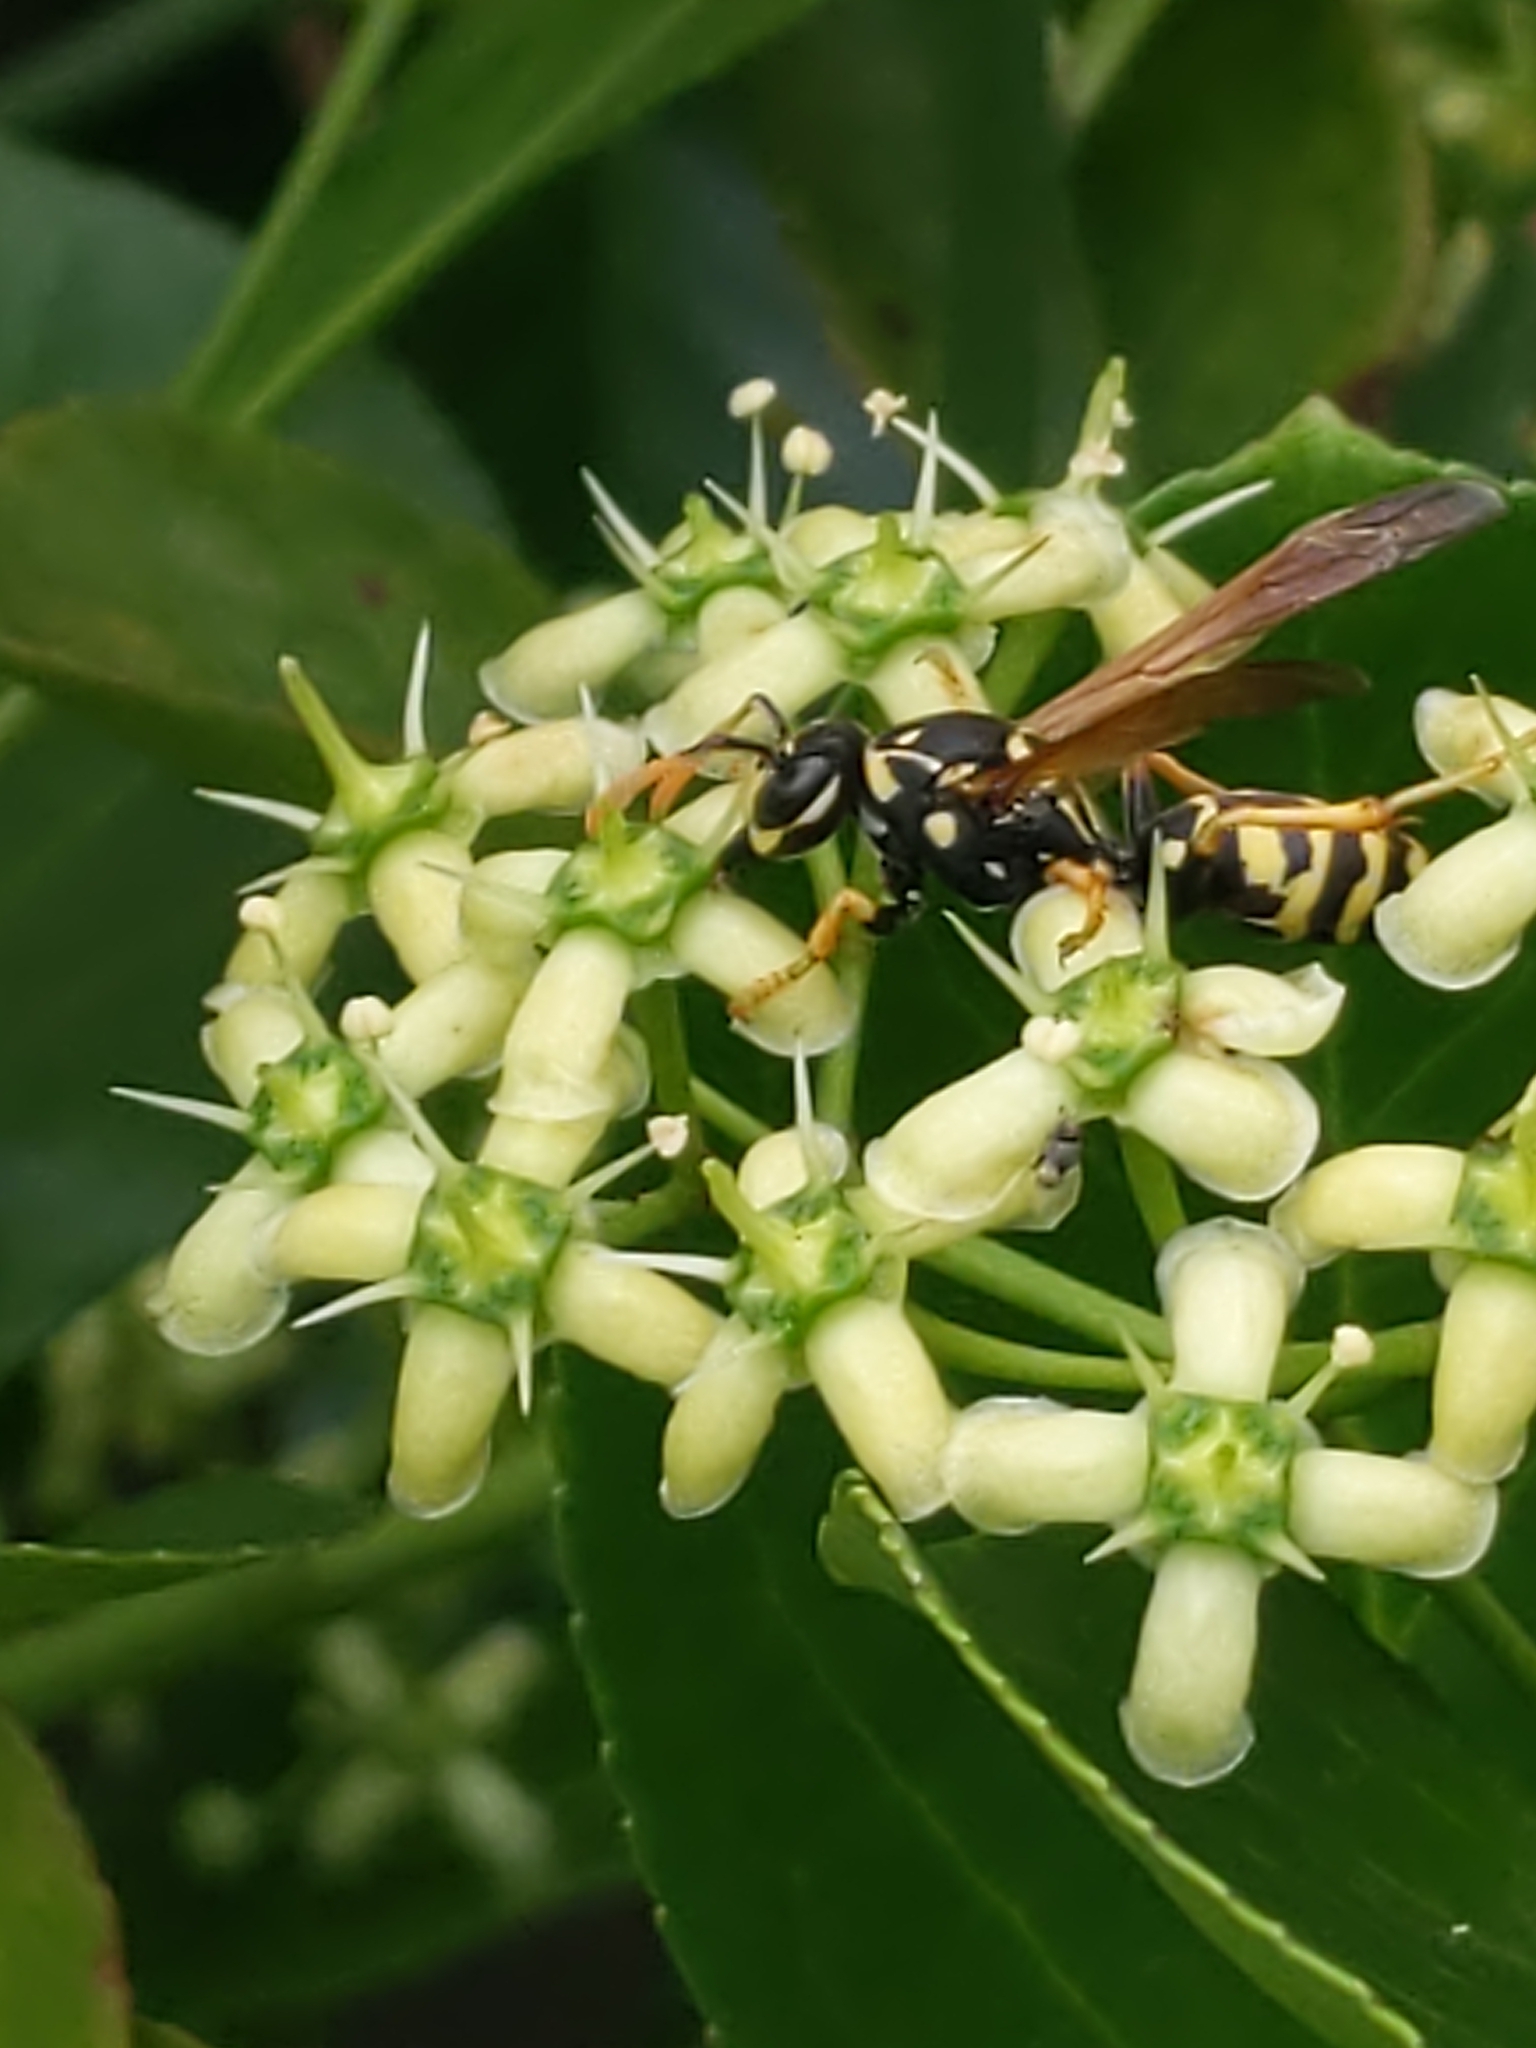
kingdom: Animalia
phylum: Arthropoda
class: Insecta
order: Hymenoptera
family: Eumenidae
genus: Polistes
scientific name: Polistes dominula
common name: Paper wasp
